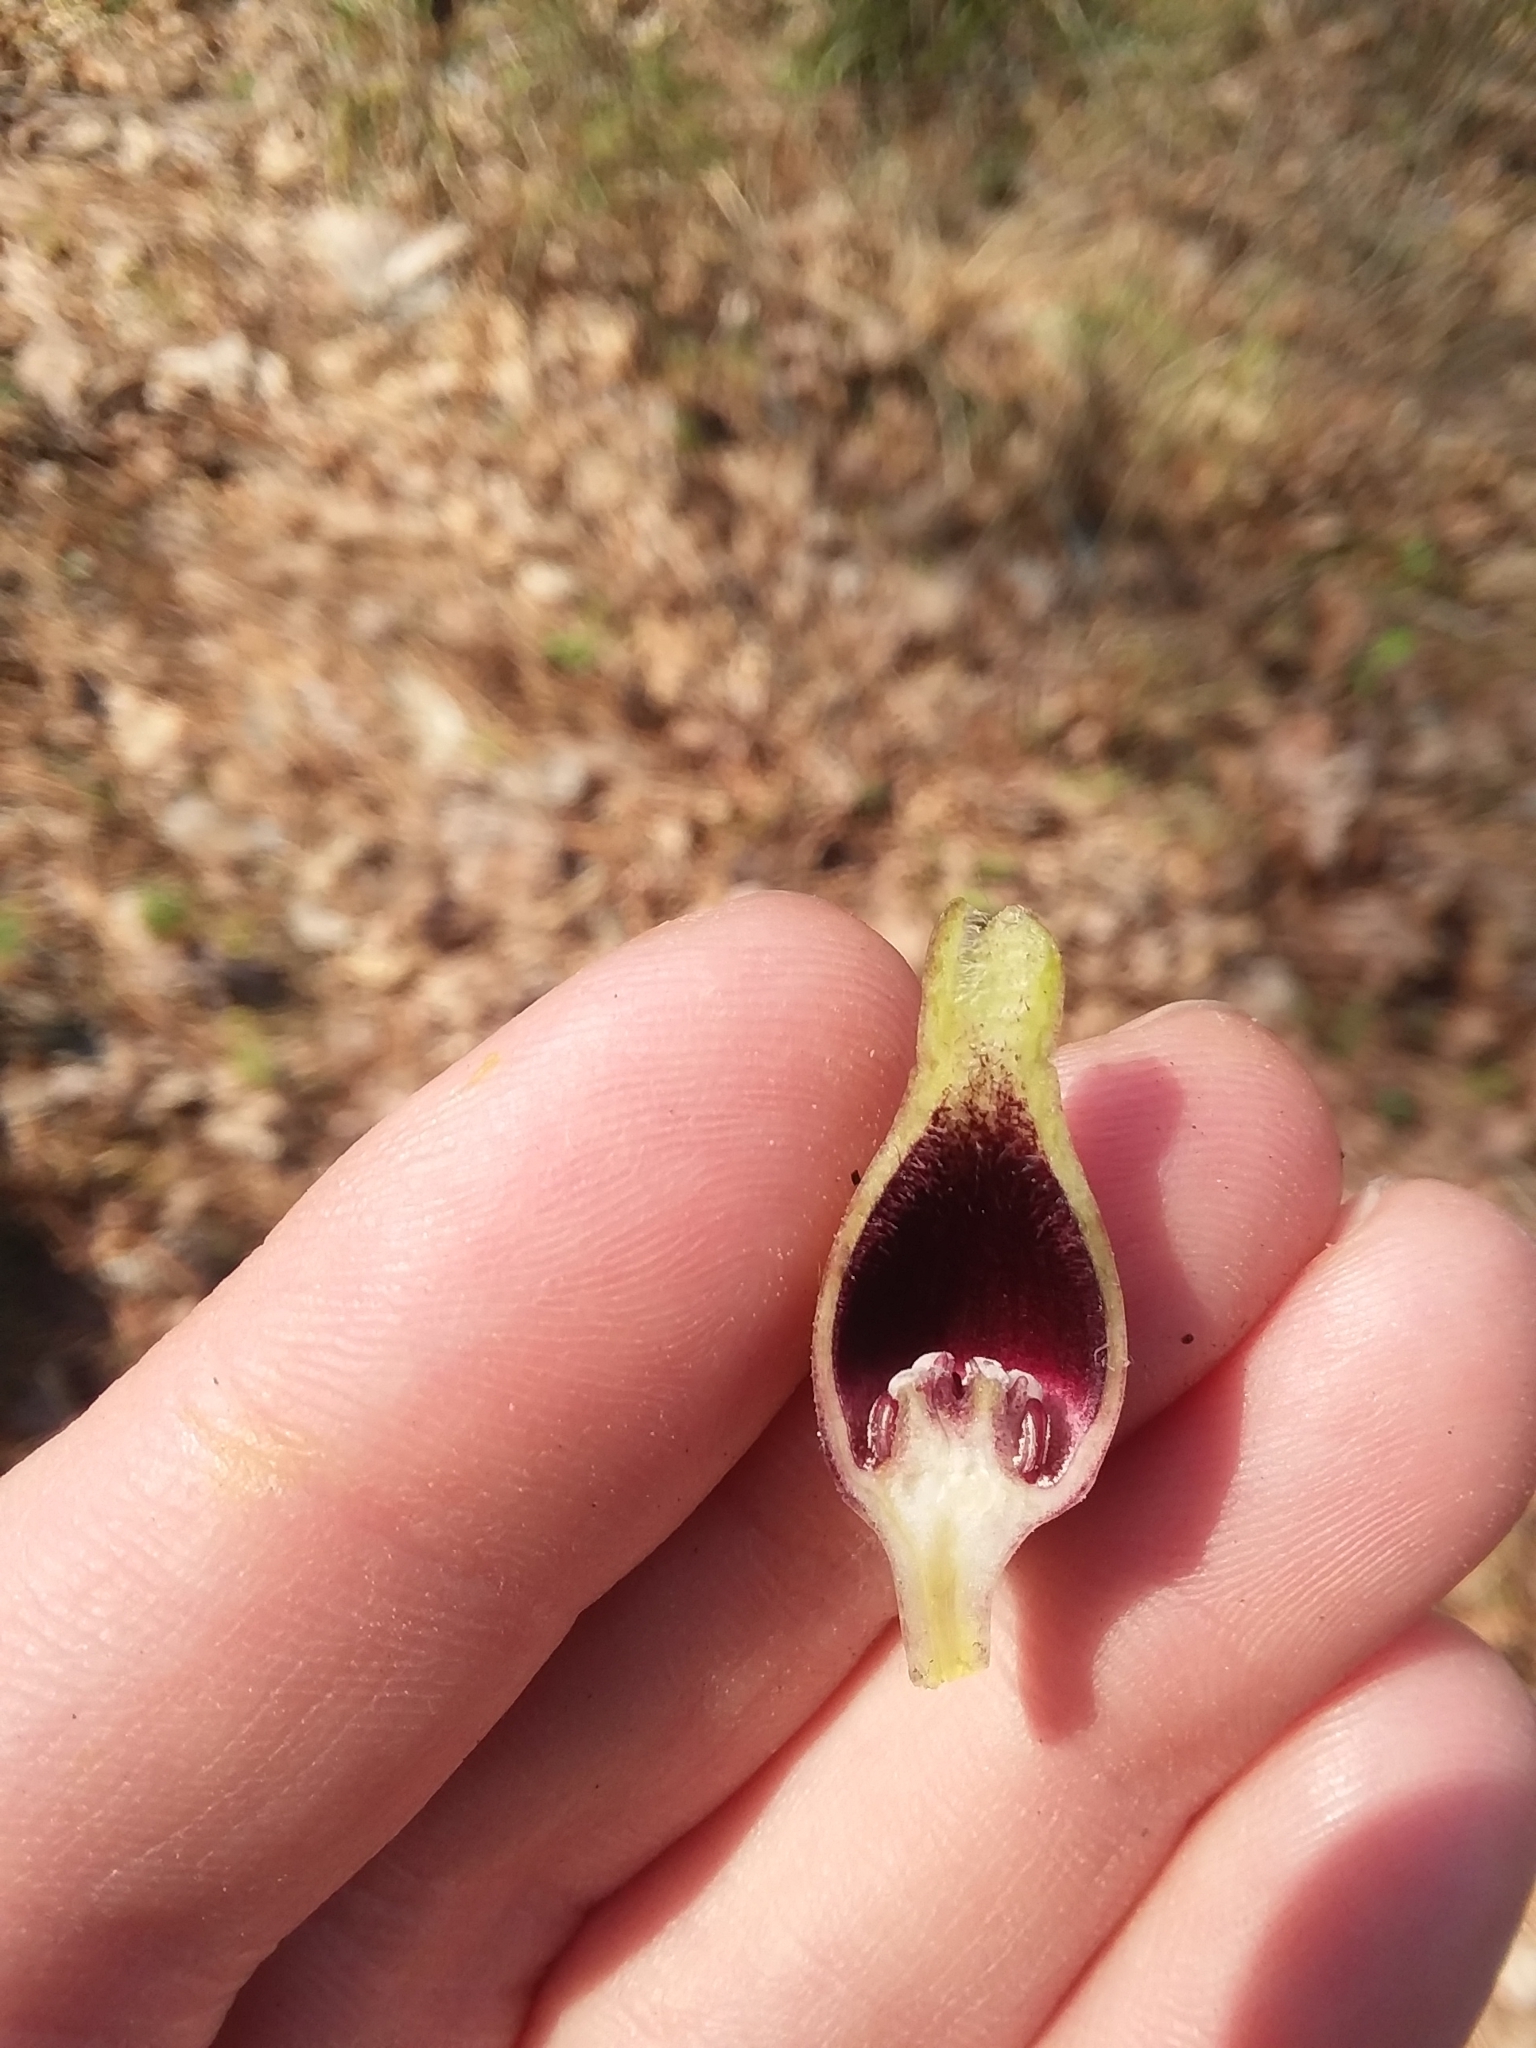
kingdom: Plantae
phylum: Tracheophyta
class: Magnoliopsida
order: Piperales
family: Aristolochiaceae
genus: Hexastylis
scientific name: Hexastylis arifolia
